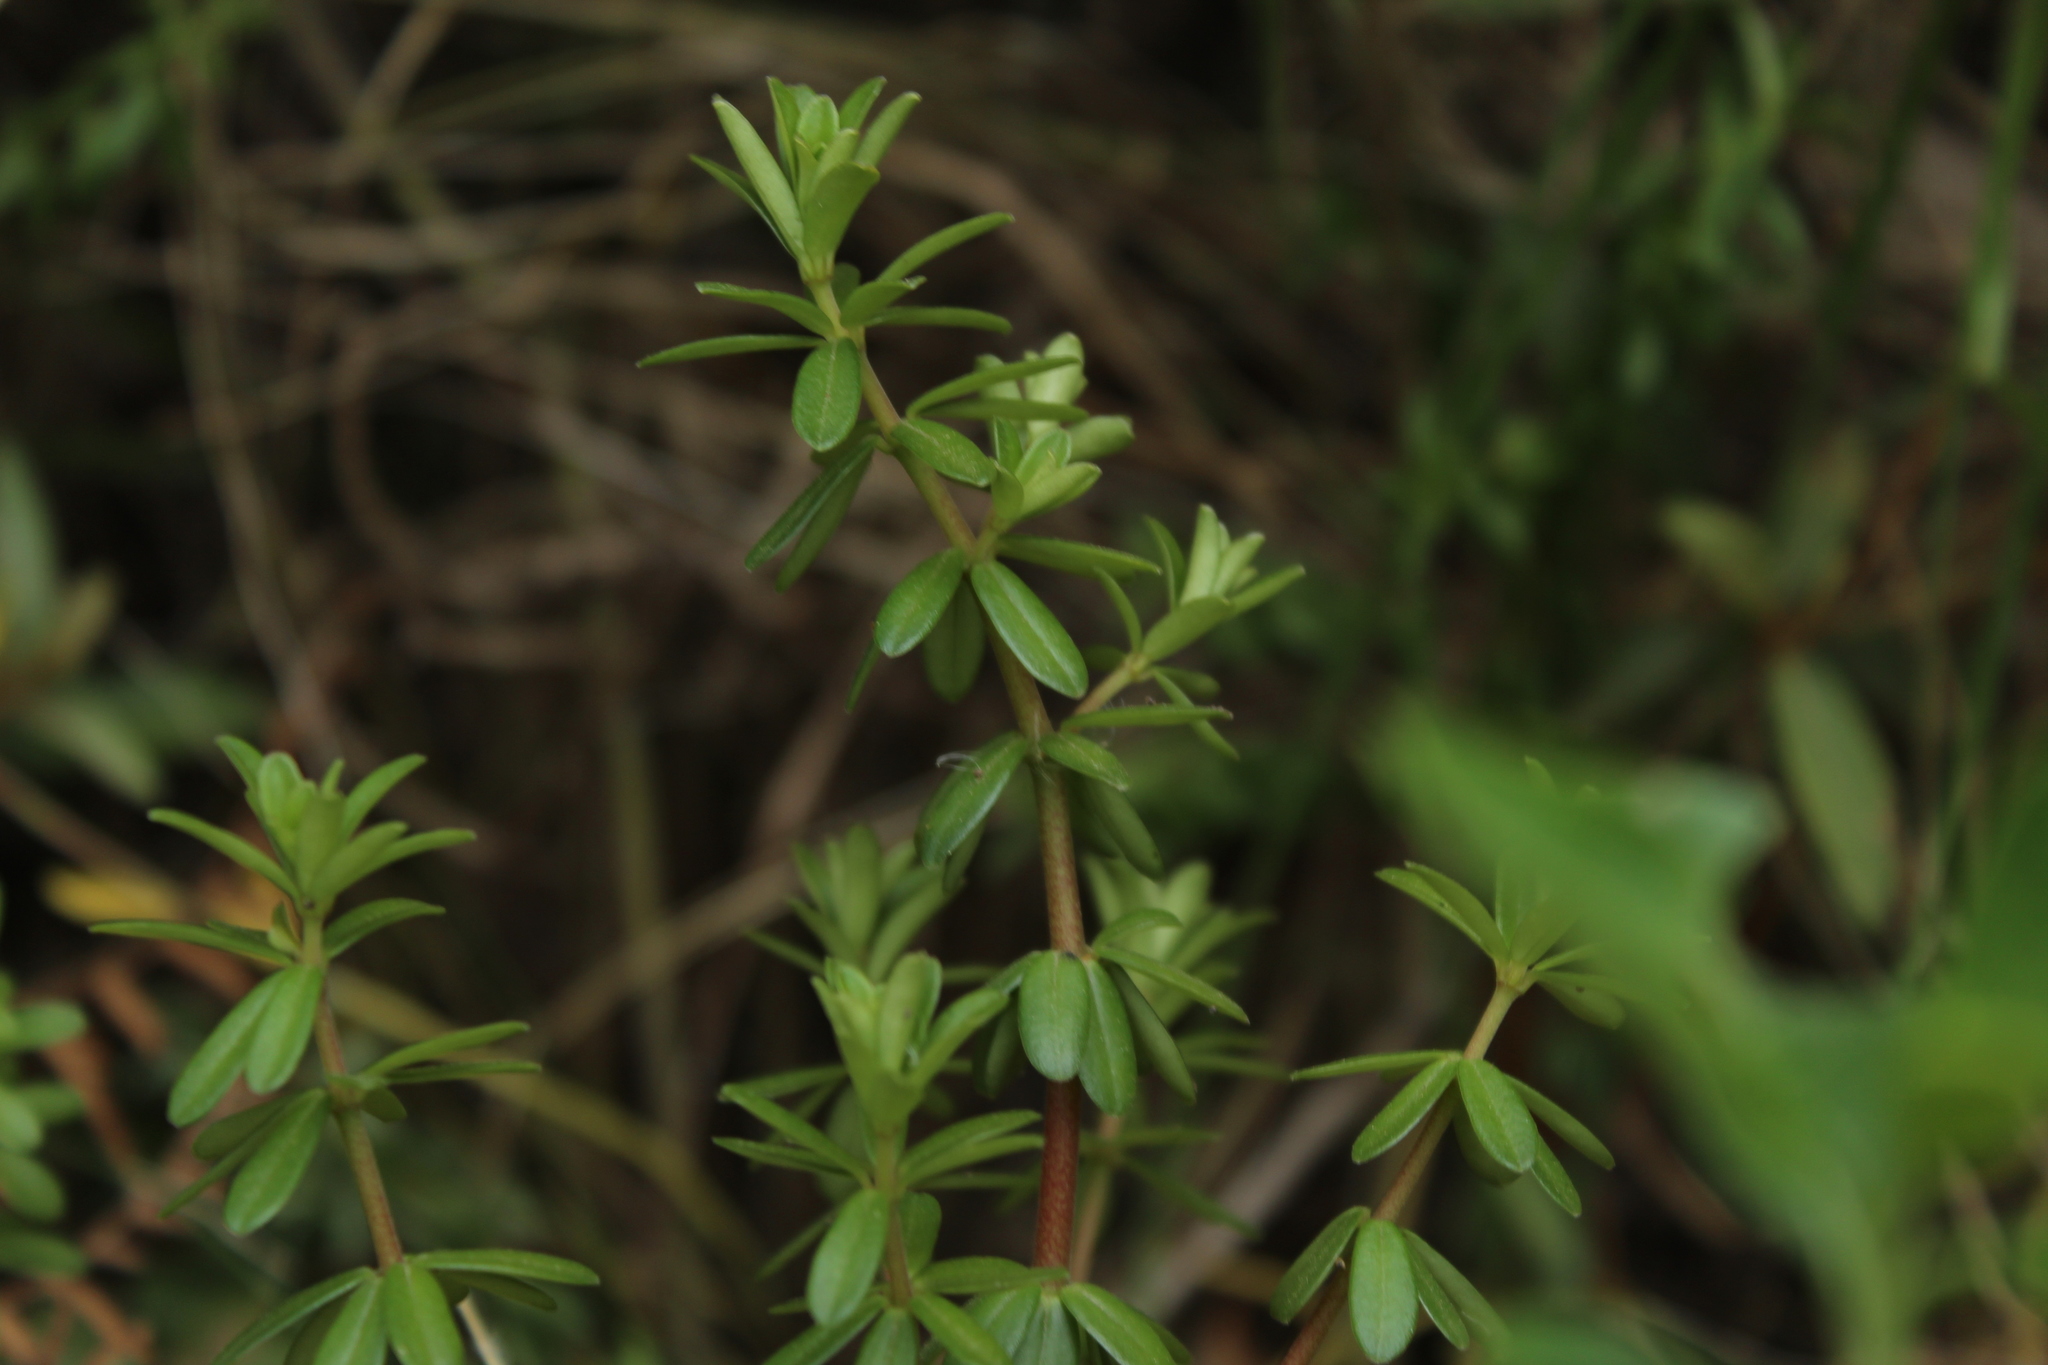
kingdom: Plantae
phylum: Tracheophyta
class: Magnoliopsida
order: Piperales
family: Piperaceae
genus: Peperomia
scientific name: Peperomia ilaloensis
